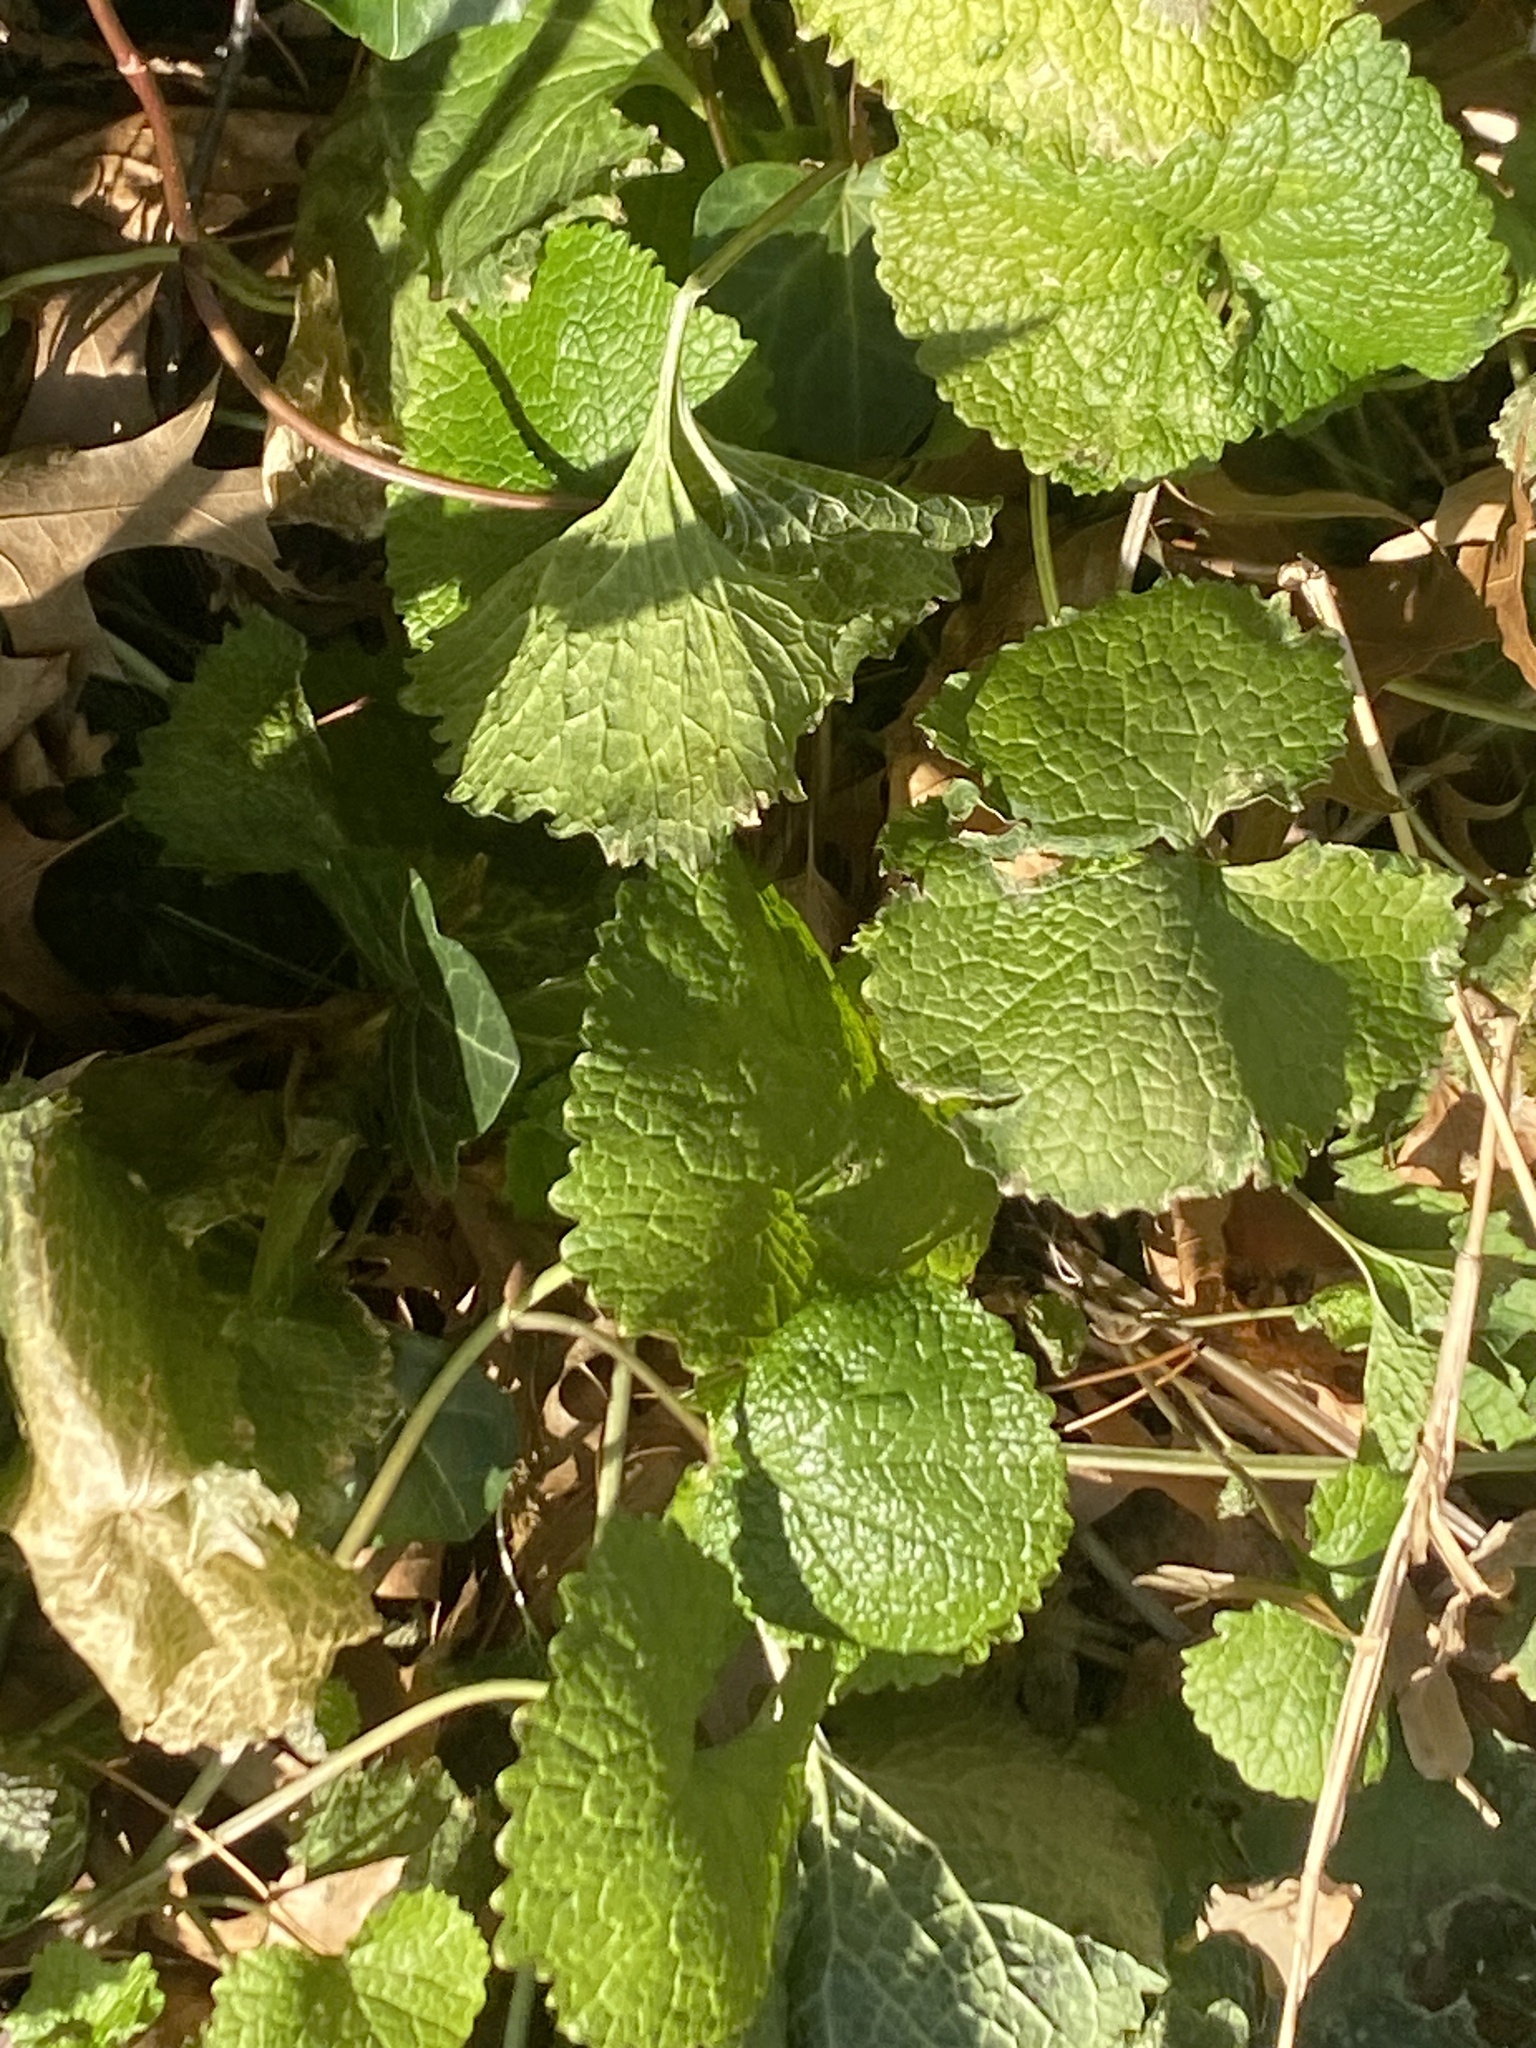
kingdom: Plantae
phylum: Tracheophyta
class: Magnoliopsida
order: Brassicales
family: Brassicaceae
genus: Alliaria
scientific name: Alliaria petiolata
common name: Garlic mustard
